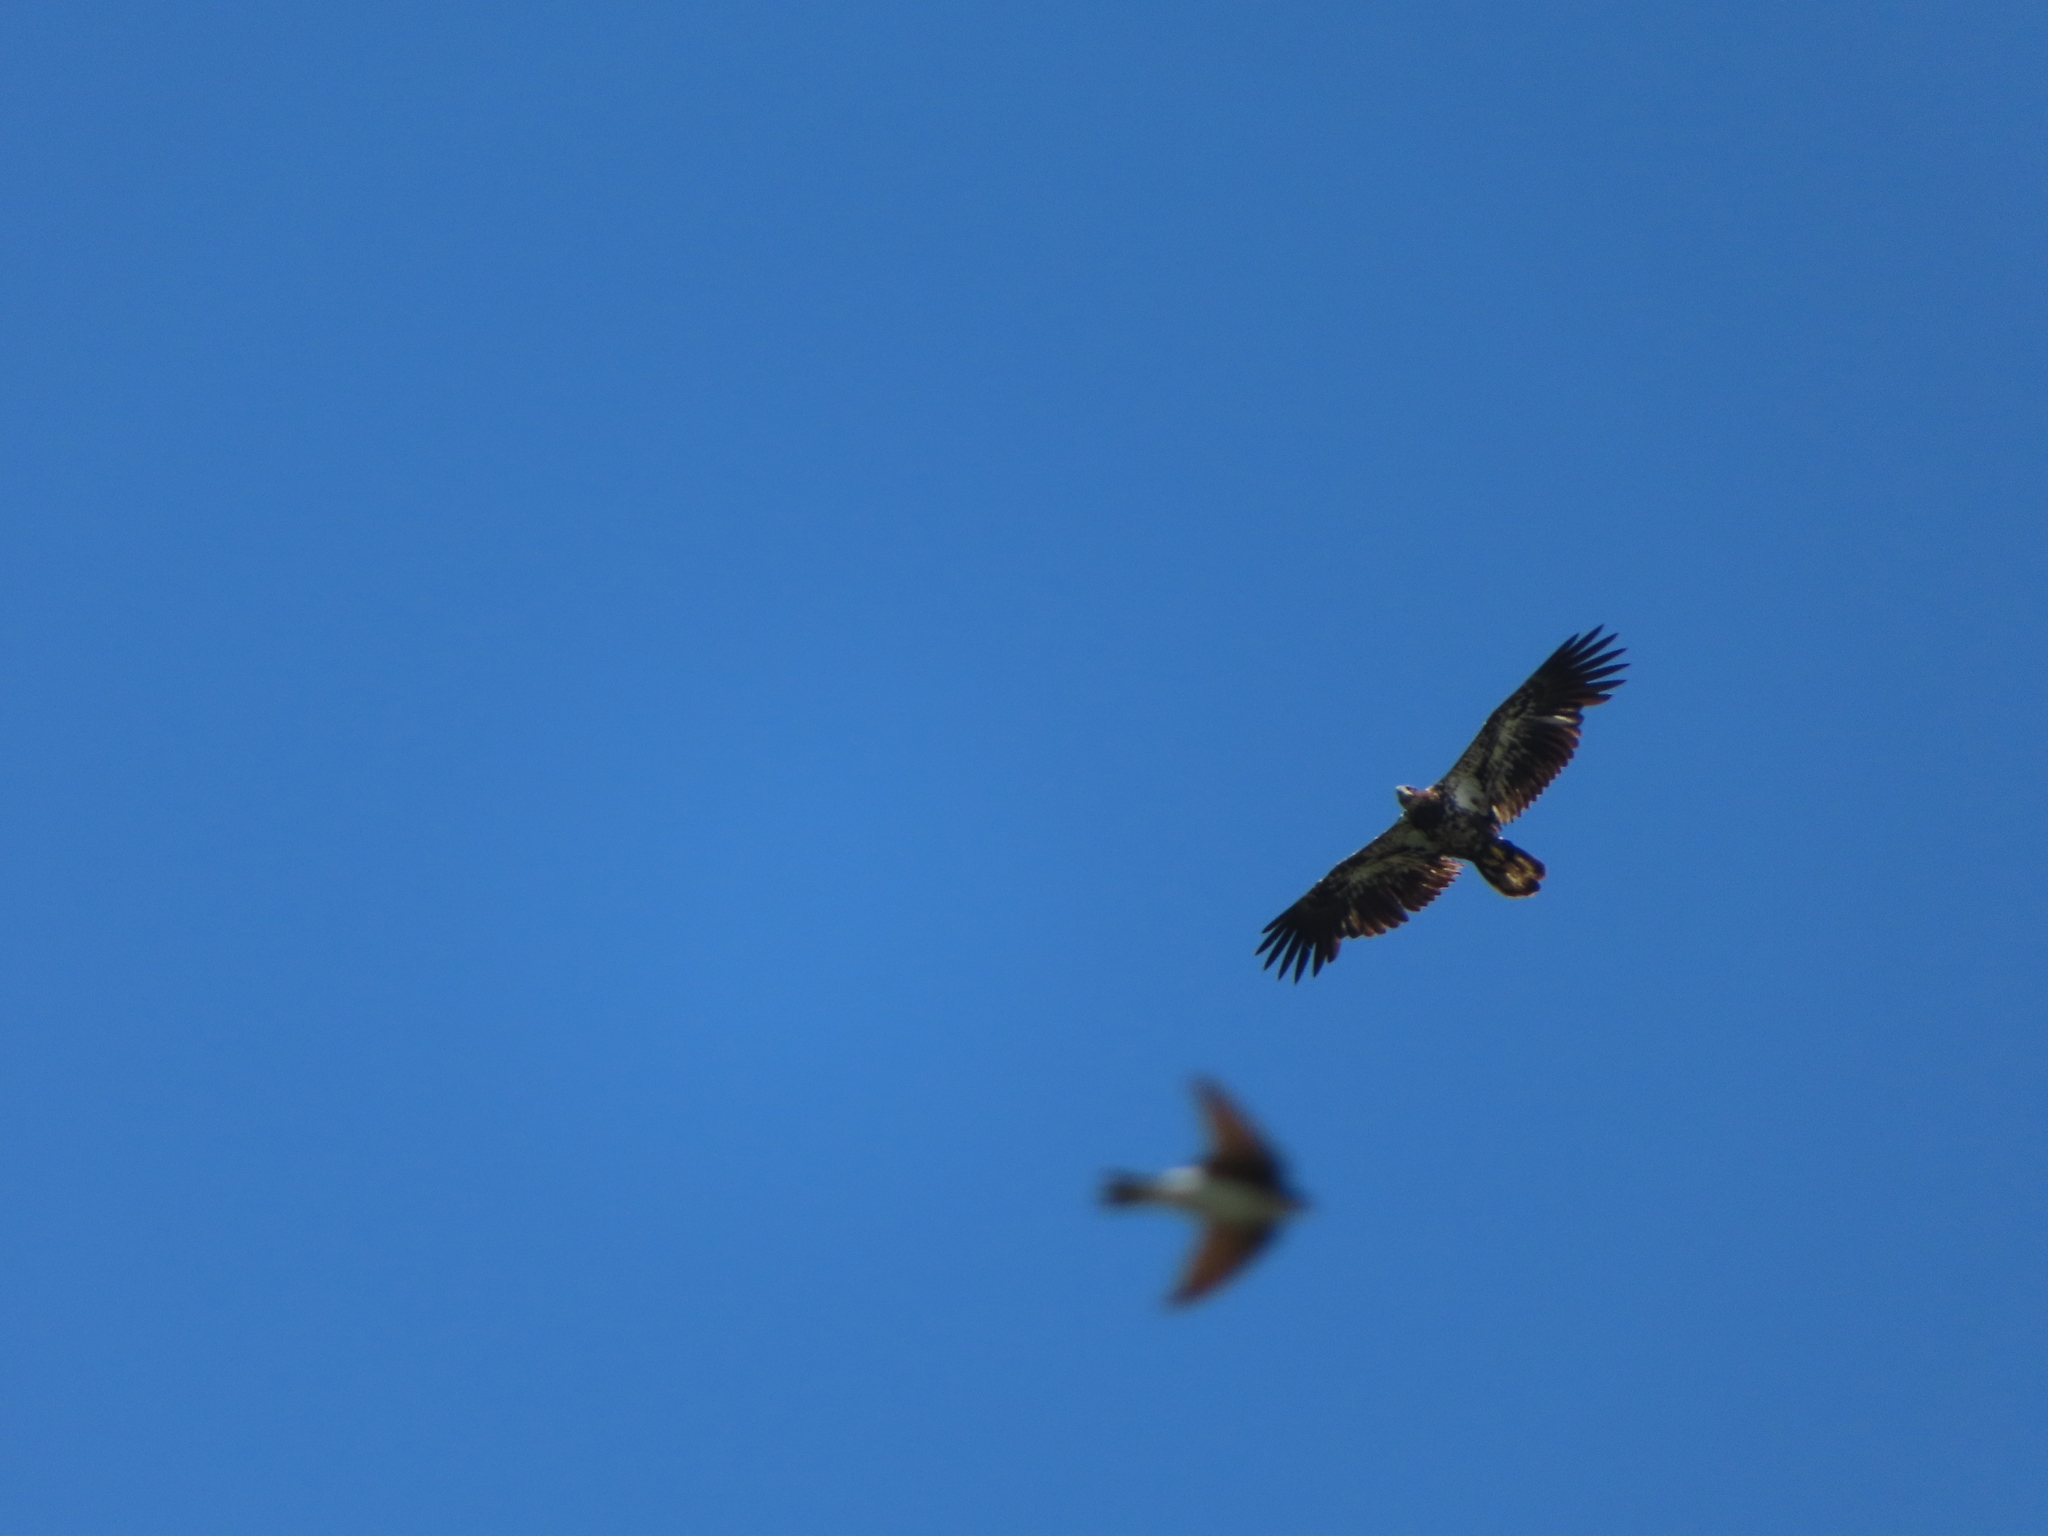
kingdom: Animalia
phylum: Chordata
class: Aves
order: Accipitriformes
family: Accipitridae
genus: Haliaeetus
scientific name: Haliaeetus leucocephalus
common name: Bald eagle
